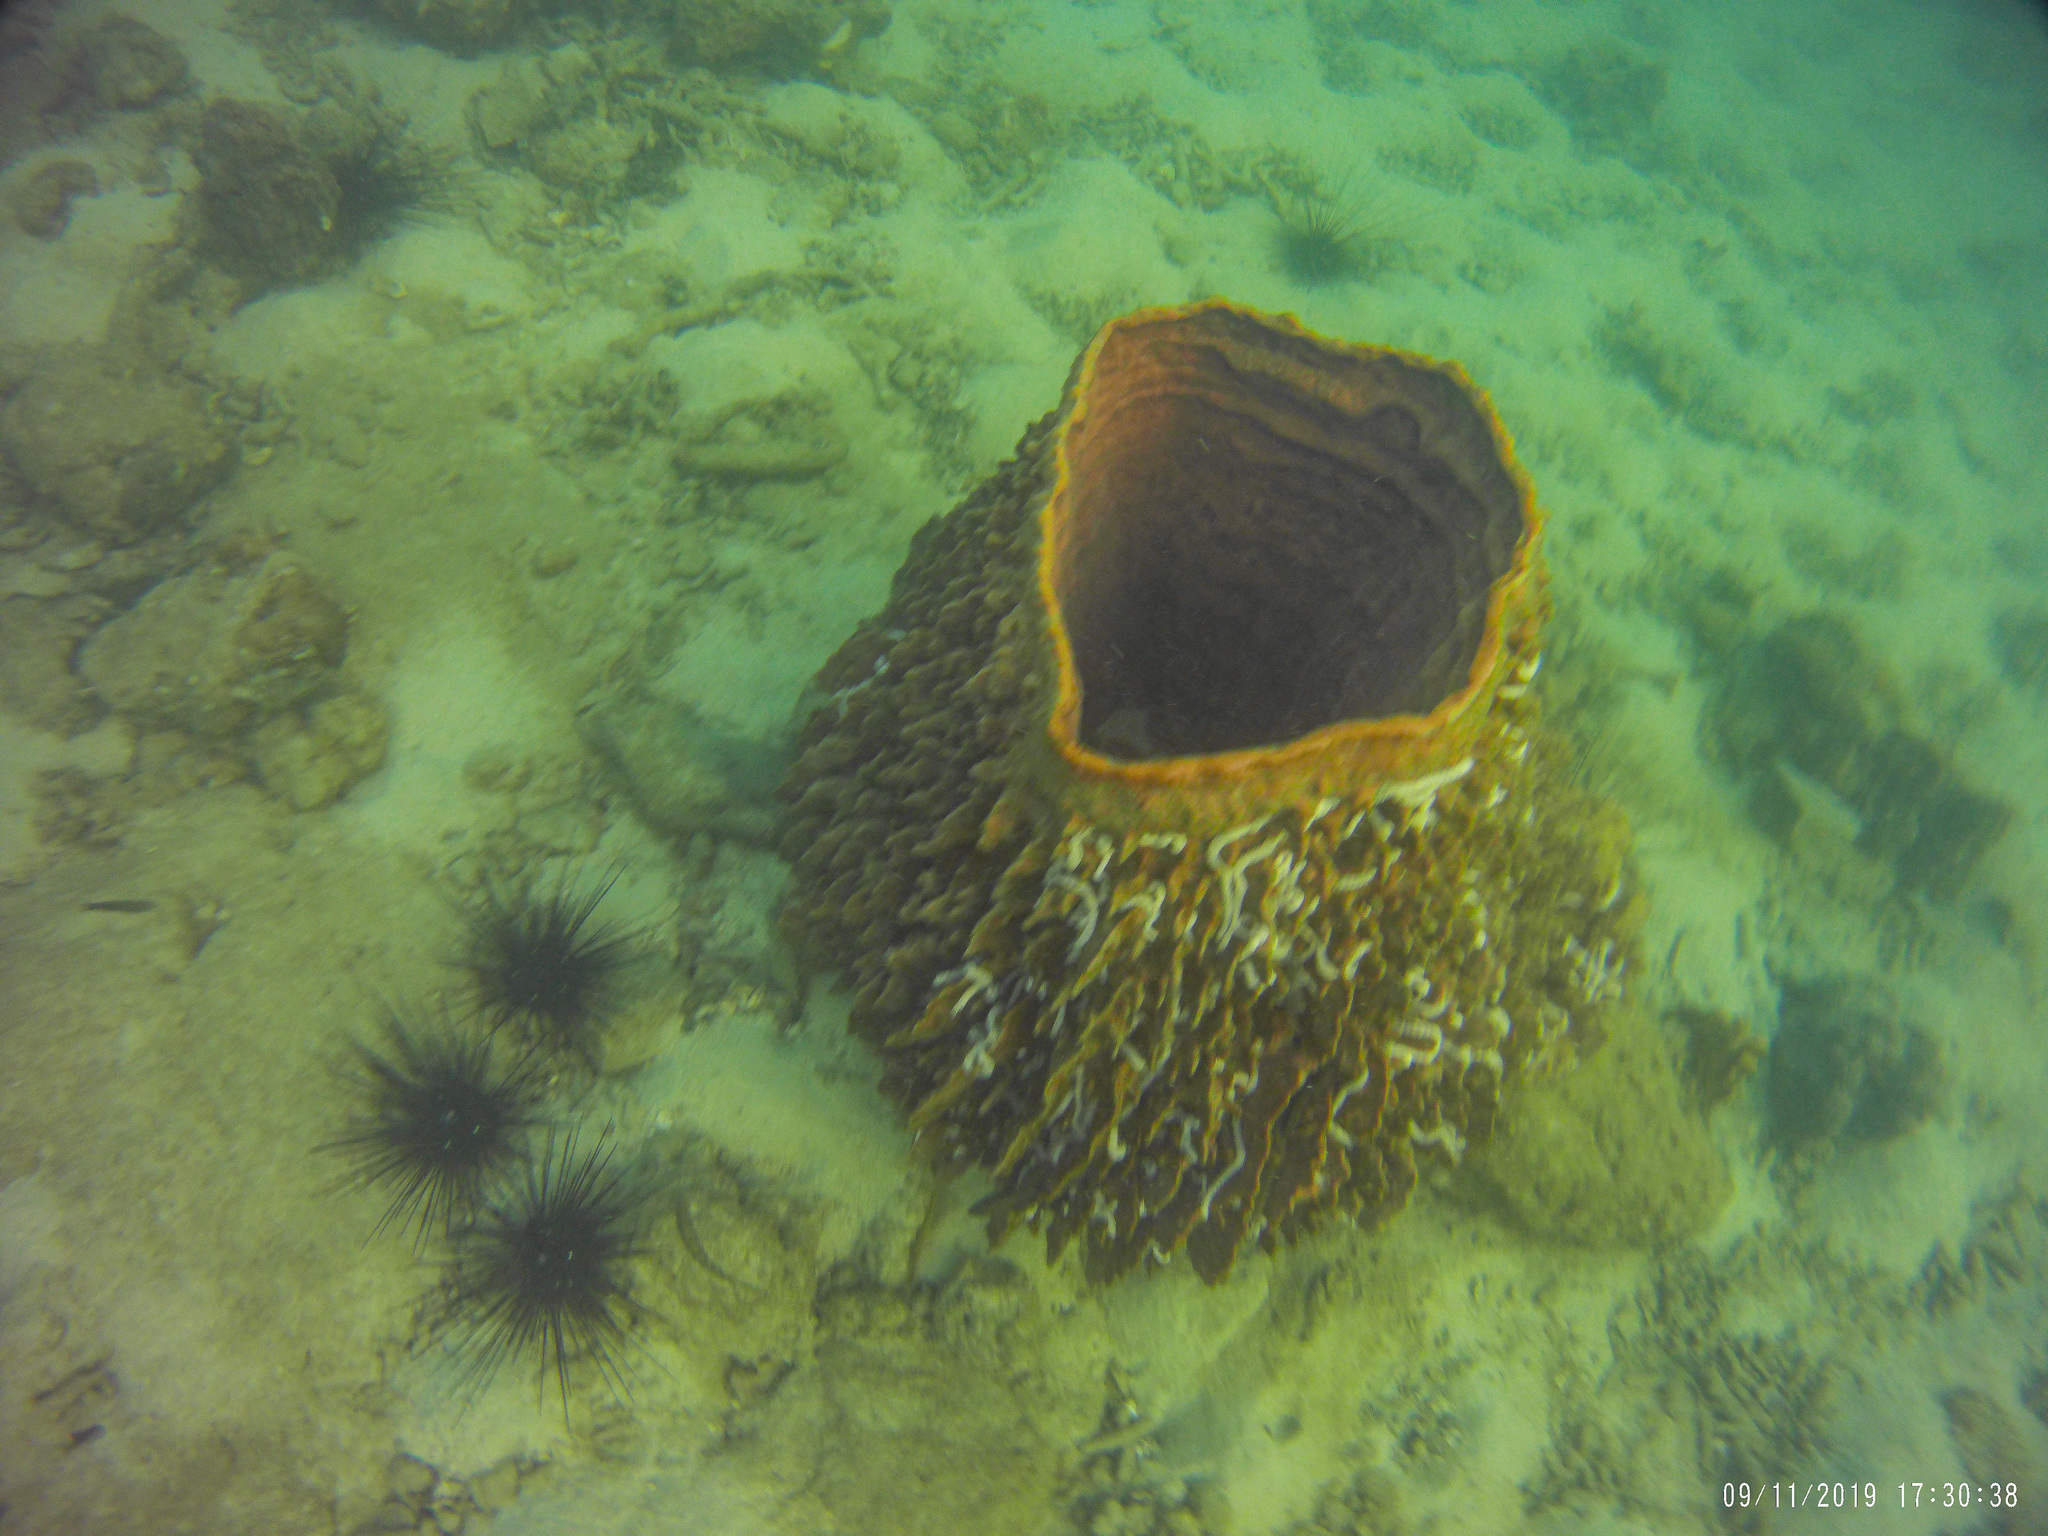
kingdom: Animalia
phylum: Porifera
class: Demospongiae
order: Haplosclerida
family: Petrosiidae
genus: Xestospongia
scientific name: Xestospongia testudinaria
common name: Barrel sponge
